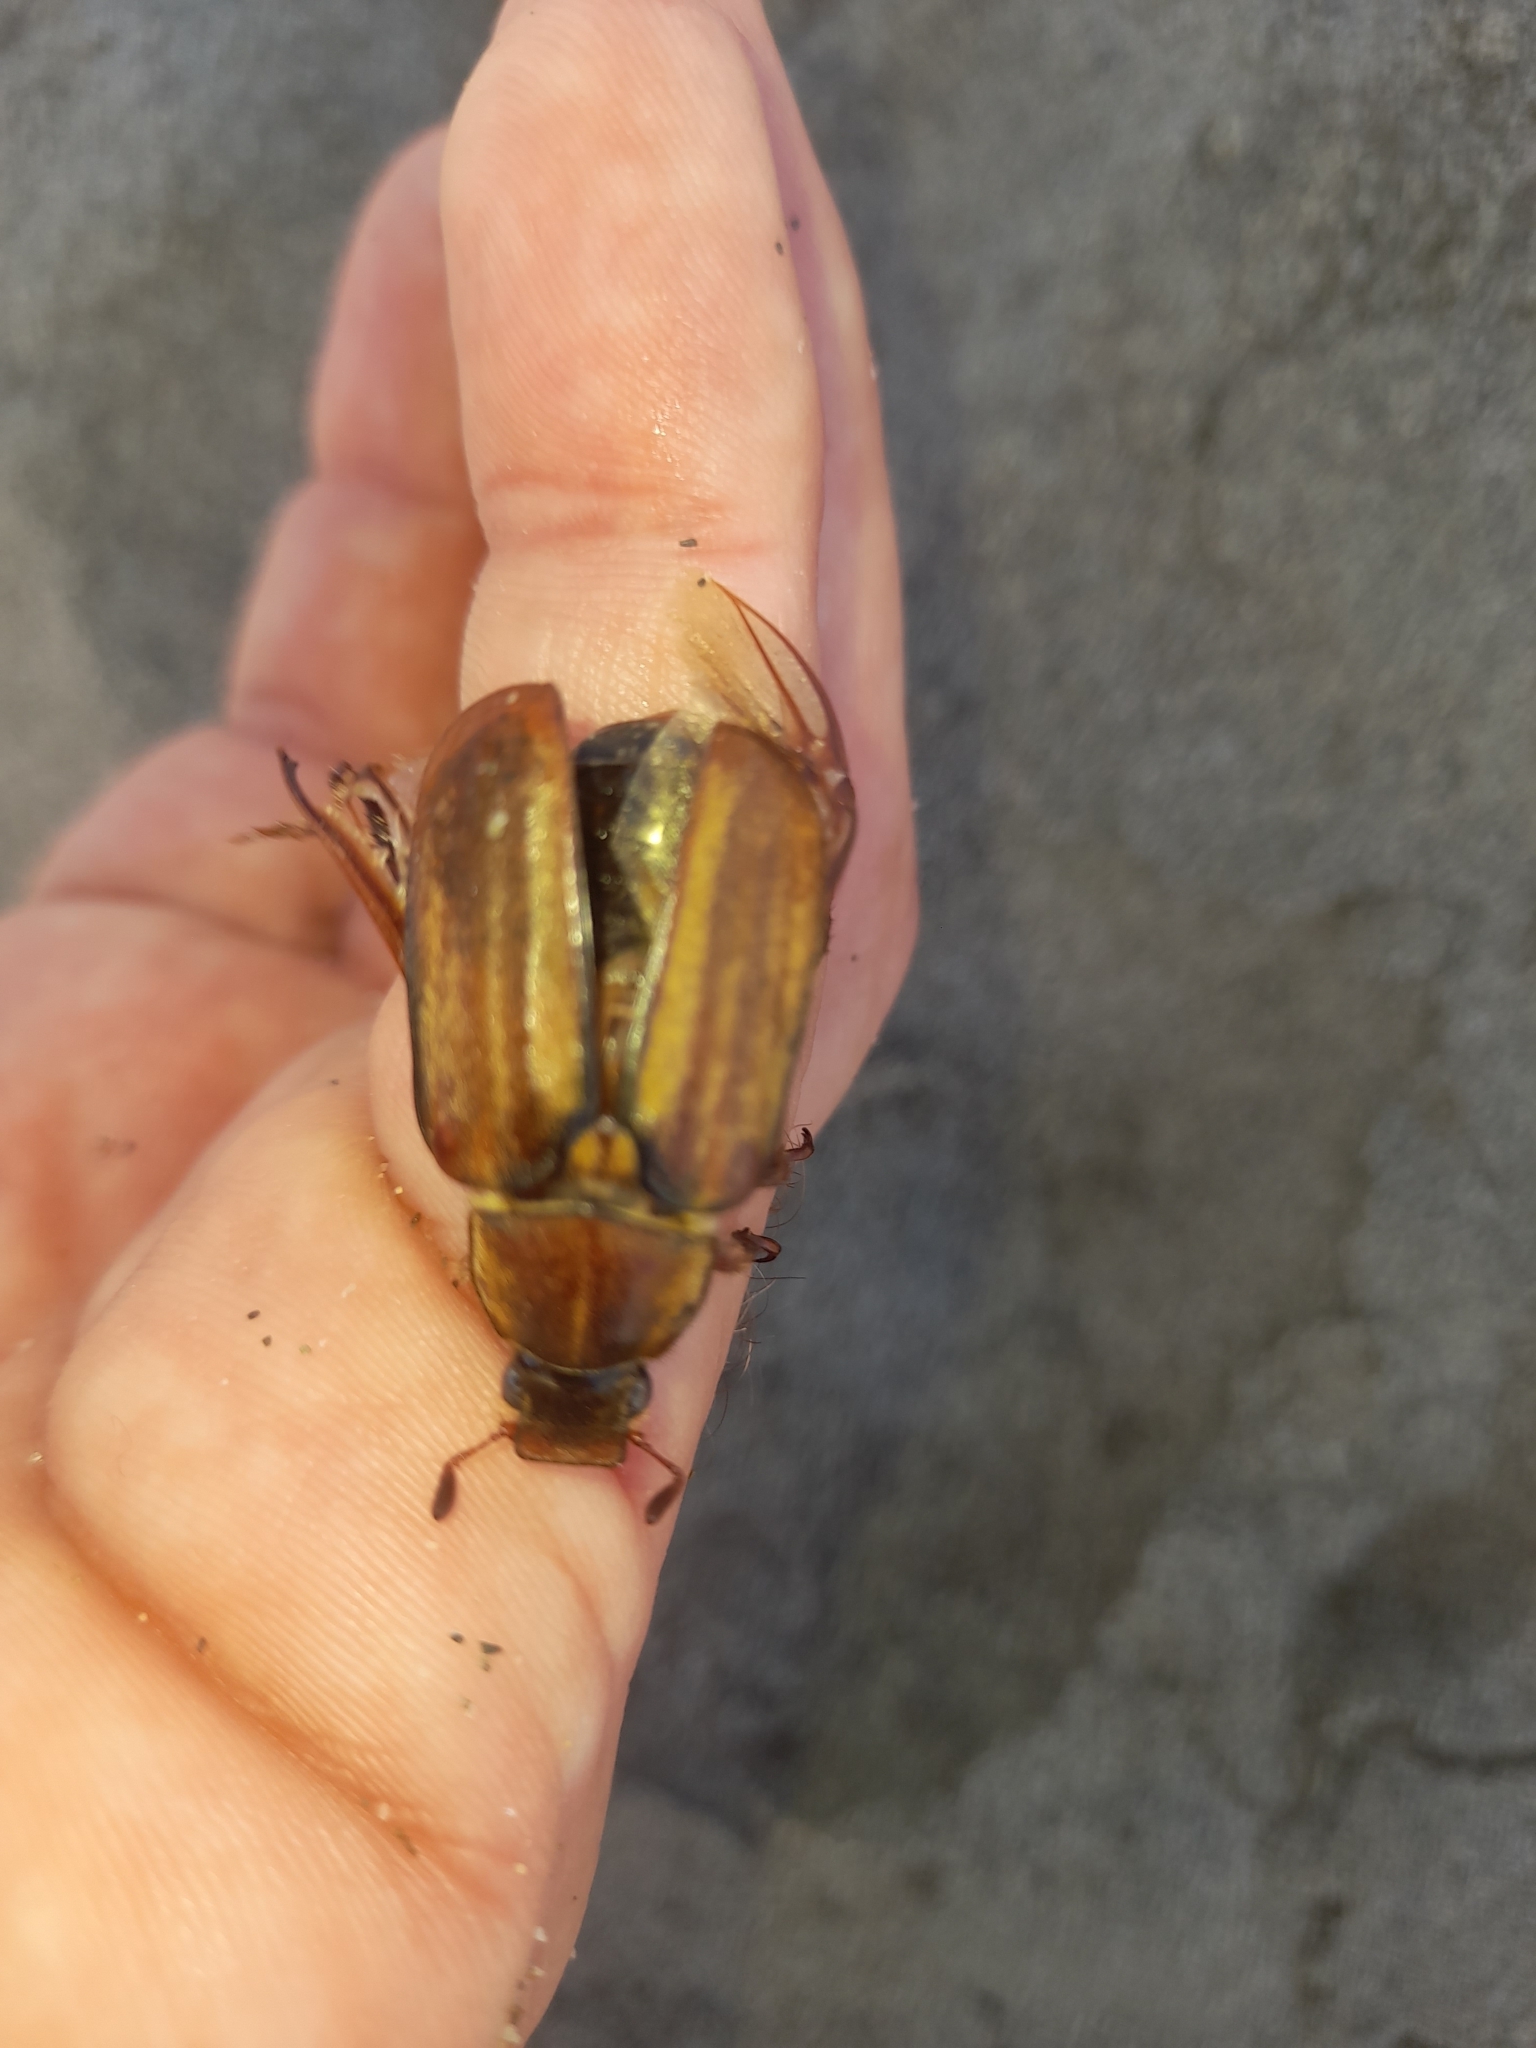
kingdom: Animalia
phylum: Arthropoda
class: Insecta
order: Coleoptera
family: Scarabaeidae
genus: Anoxia
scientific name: Anoxia matutinalis
